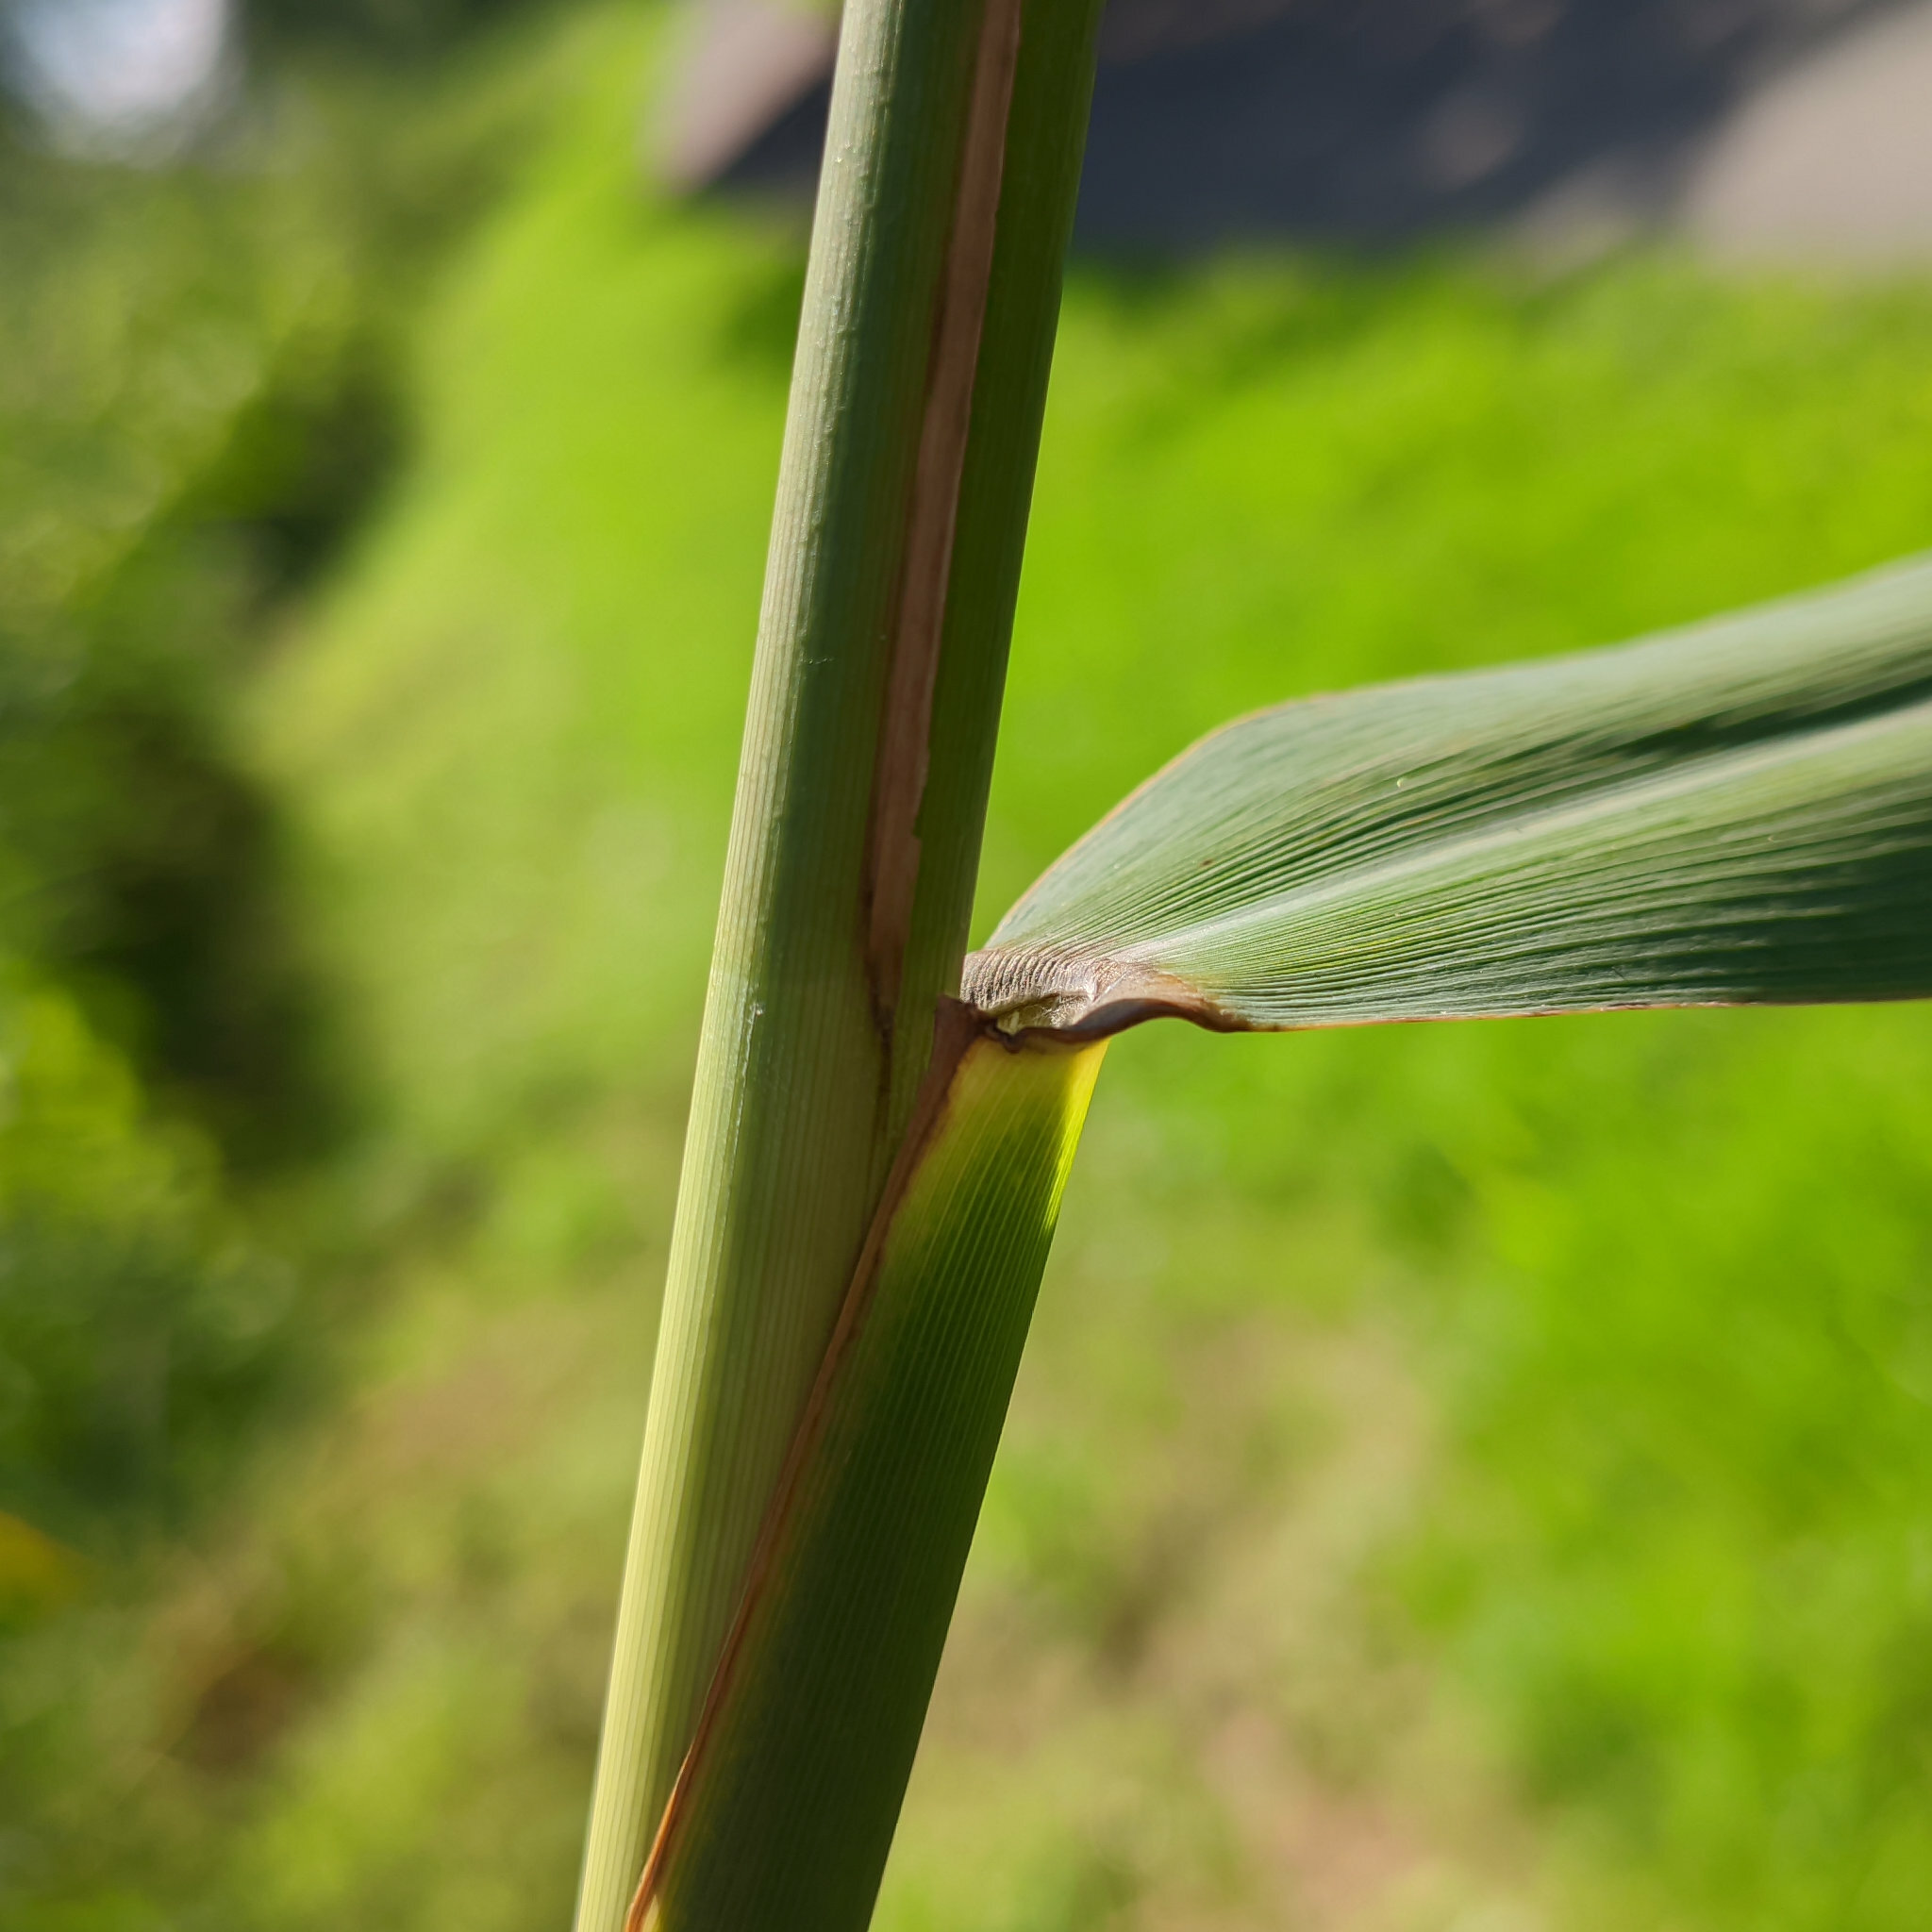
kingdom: Plantae
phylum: Tracheophyta
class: Liliopsida
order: Poales
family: Poaceae
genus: Phragmites
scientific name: Phragmites australis
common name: Common reed
